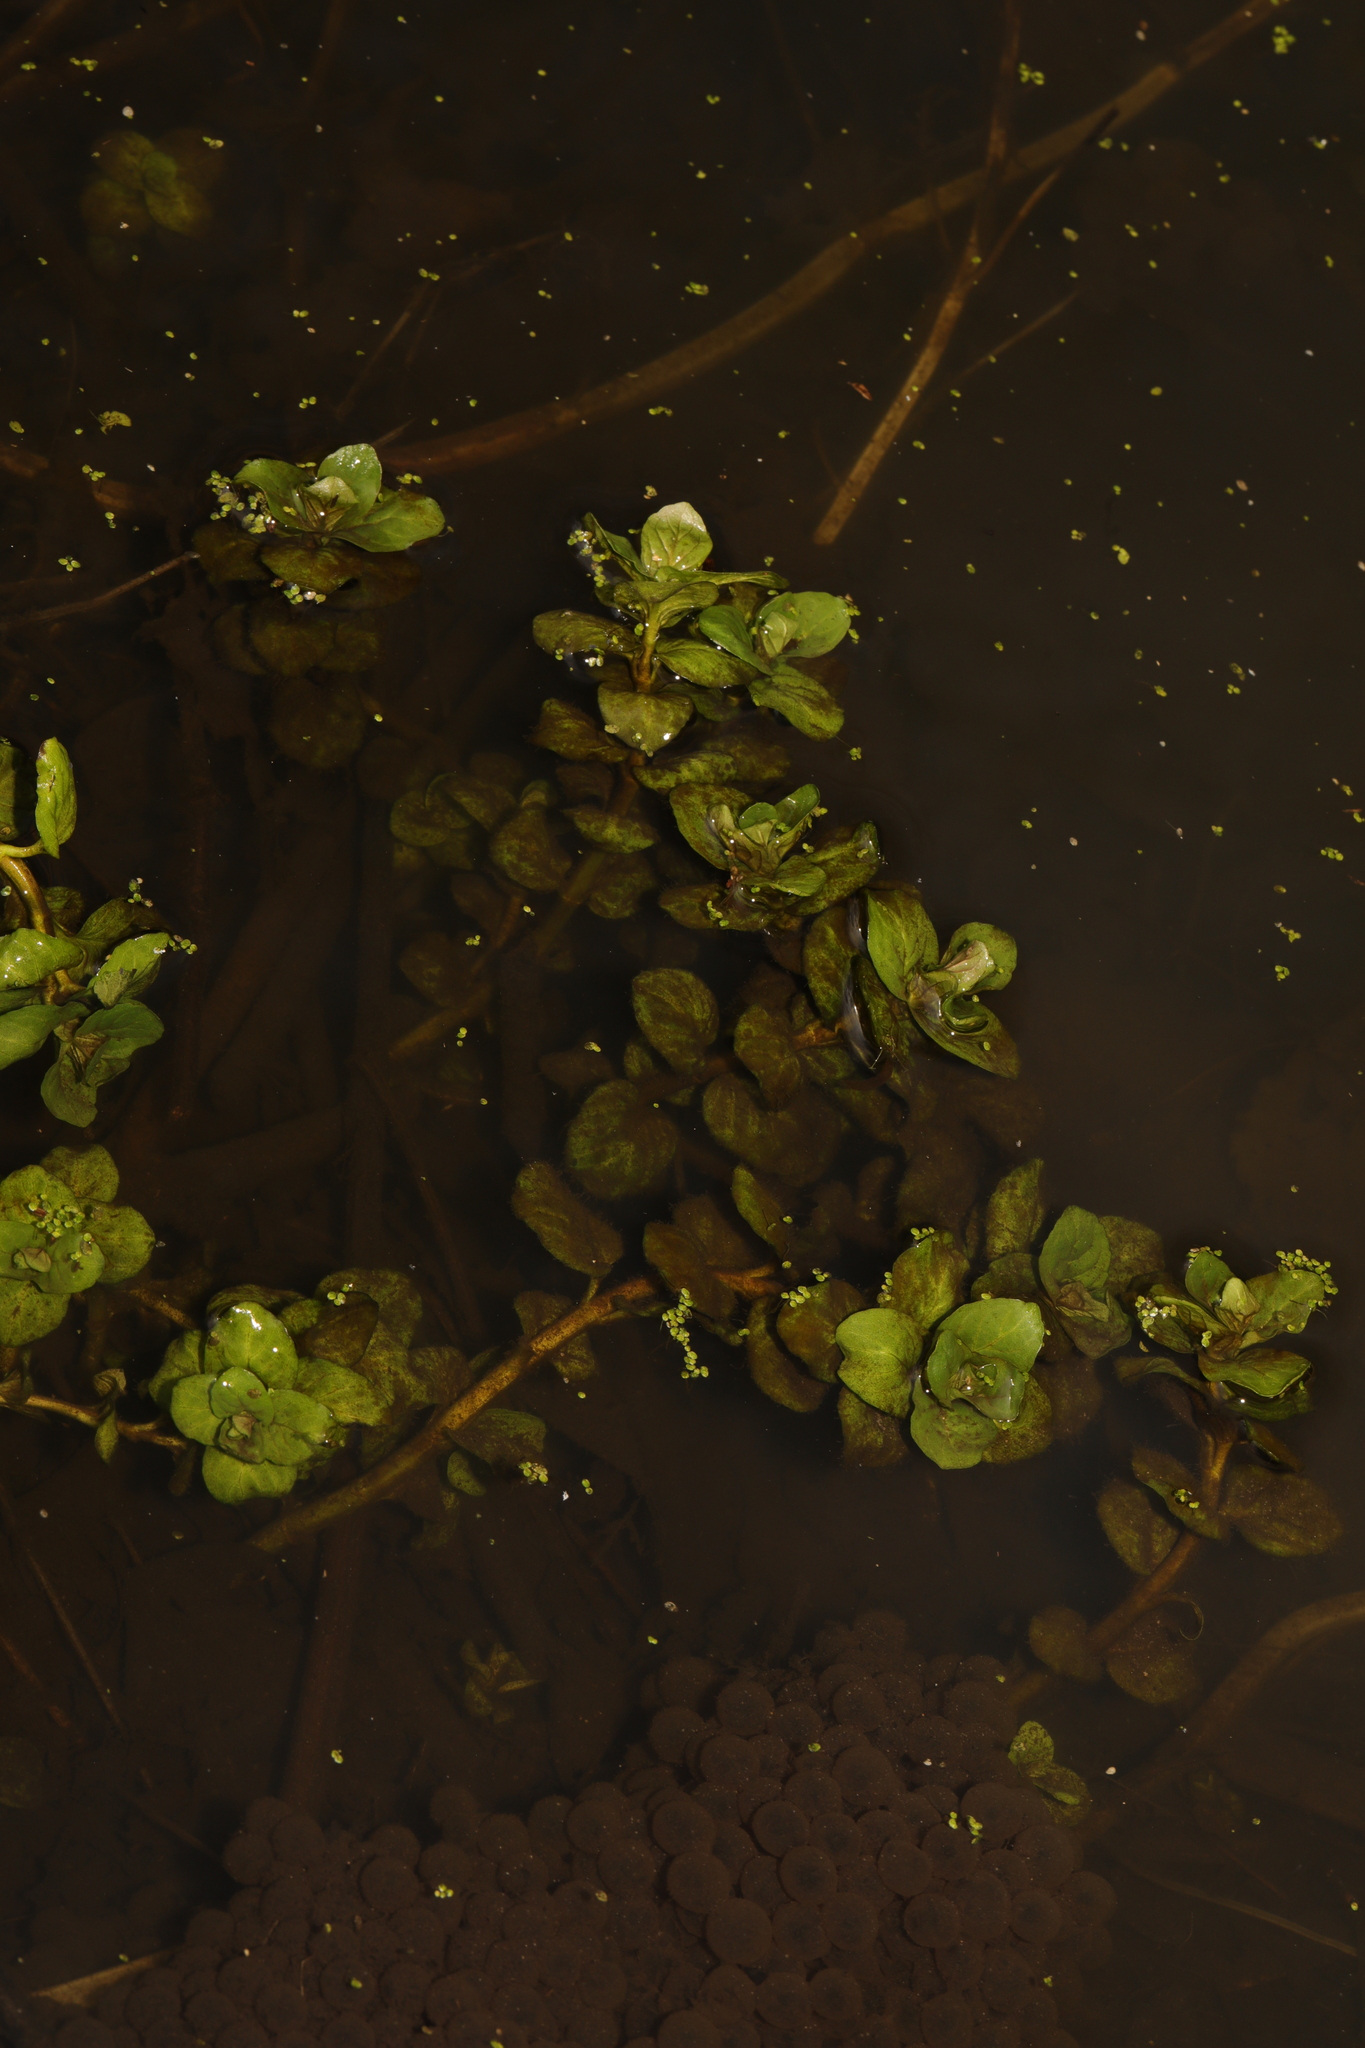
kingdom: Plantae
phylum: Tracheophyta
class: Magnoliopsida
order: Lamiales
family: Plantaginaceae
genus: Veronica
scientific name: Veronica beccabunga
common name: Brooklime
